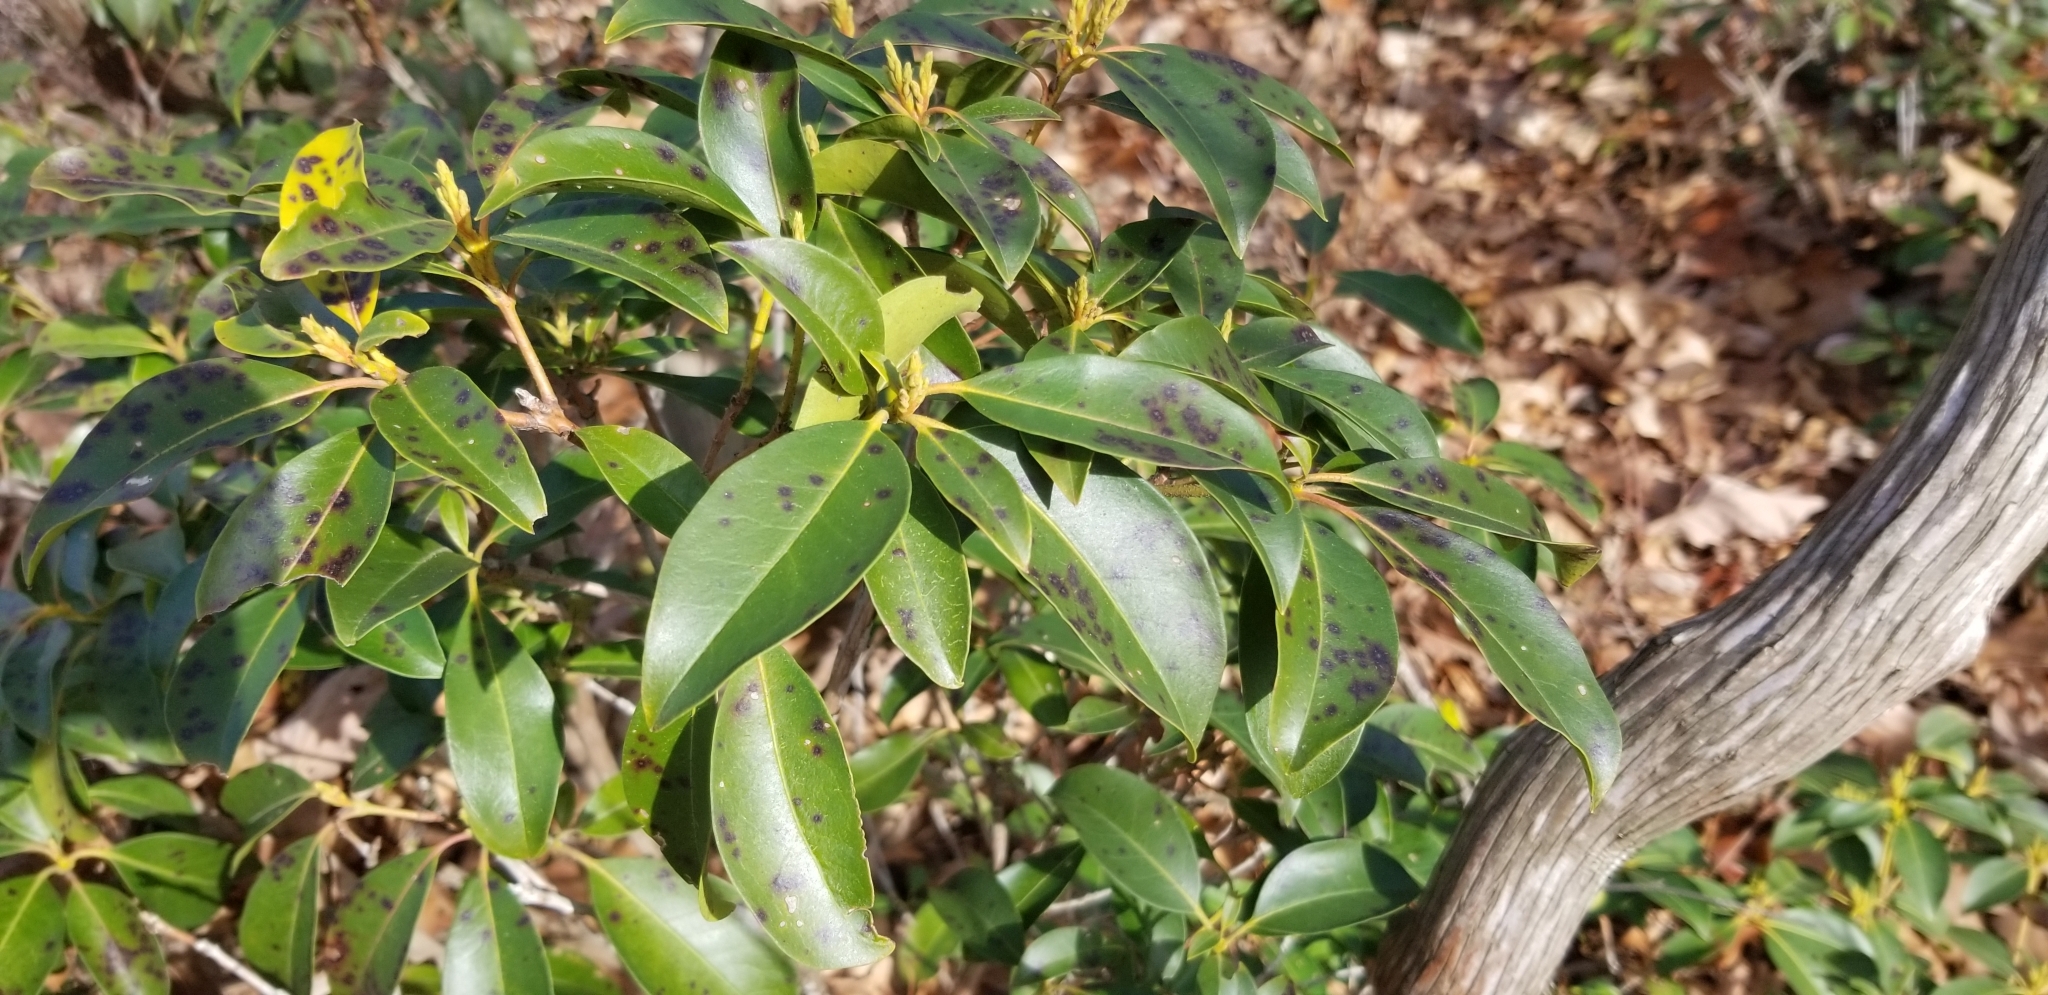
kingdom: Plantae
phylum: Tracheophyta
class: Magnoliopsida
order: Ericales
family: Ericaceae
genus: Kalmia
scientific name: Kalmia latifolia
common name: Mountain-laurel
